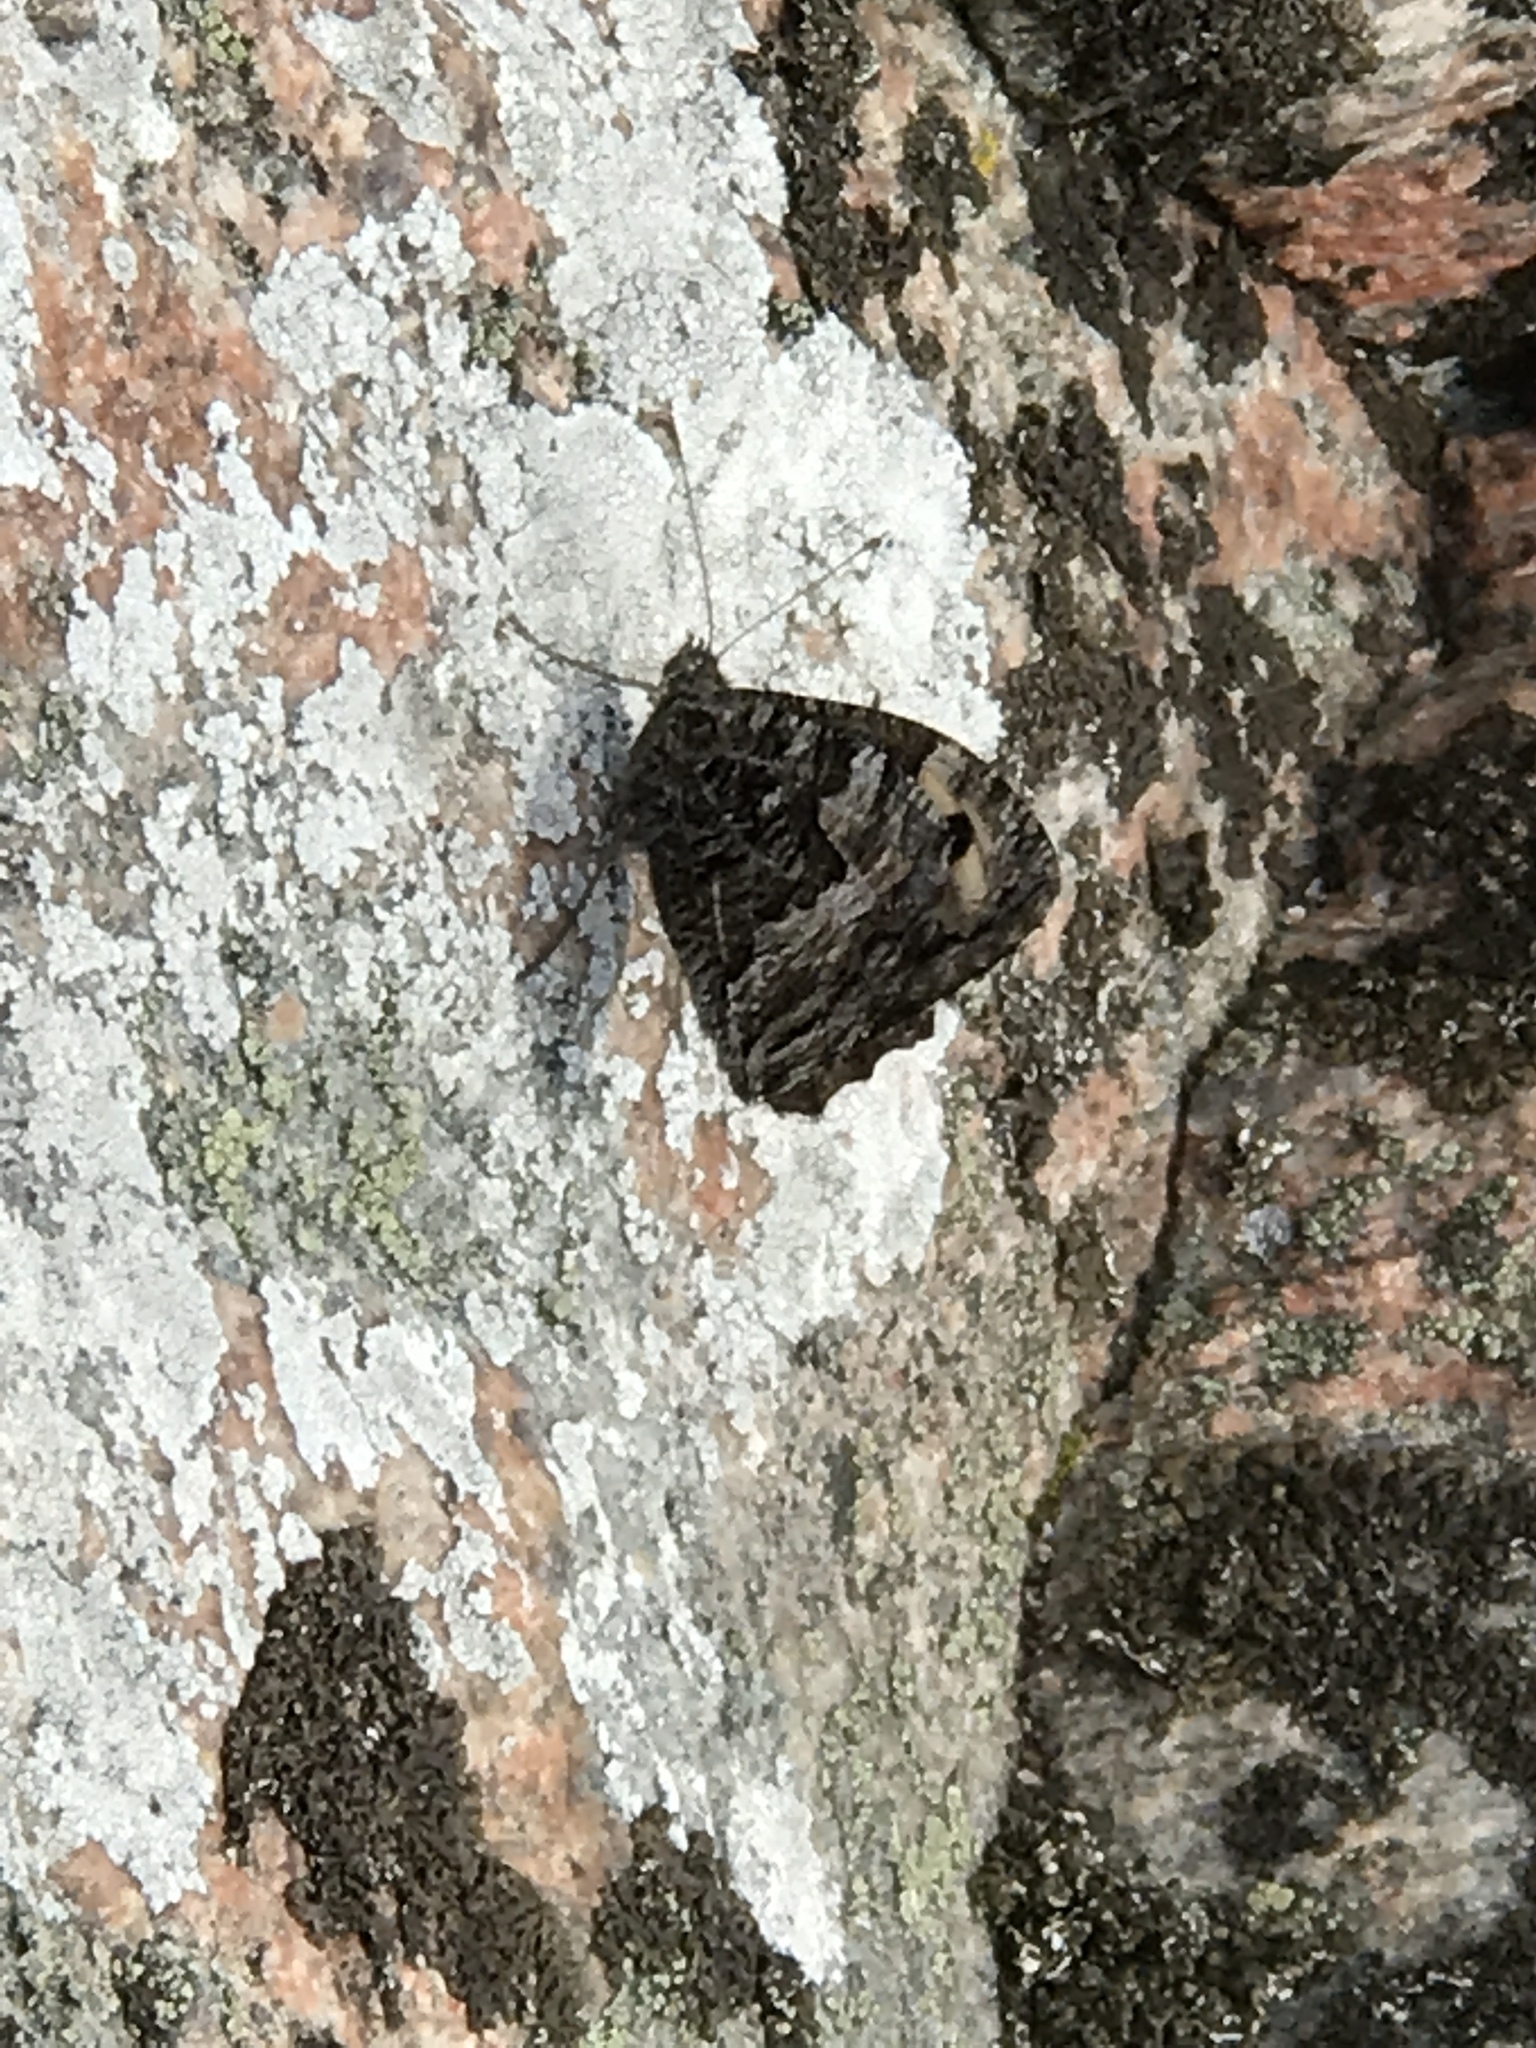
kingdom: Animalia
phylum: Arthropoda
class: Insecta
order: Lepidoptera
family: Nymphalidae
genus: Hipparchia
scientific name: Hipparchia semele
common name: Grayling
